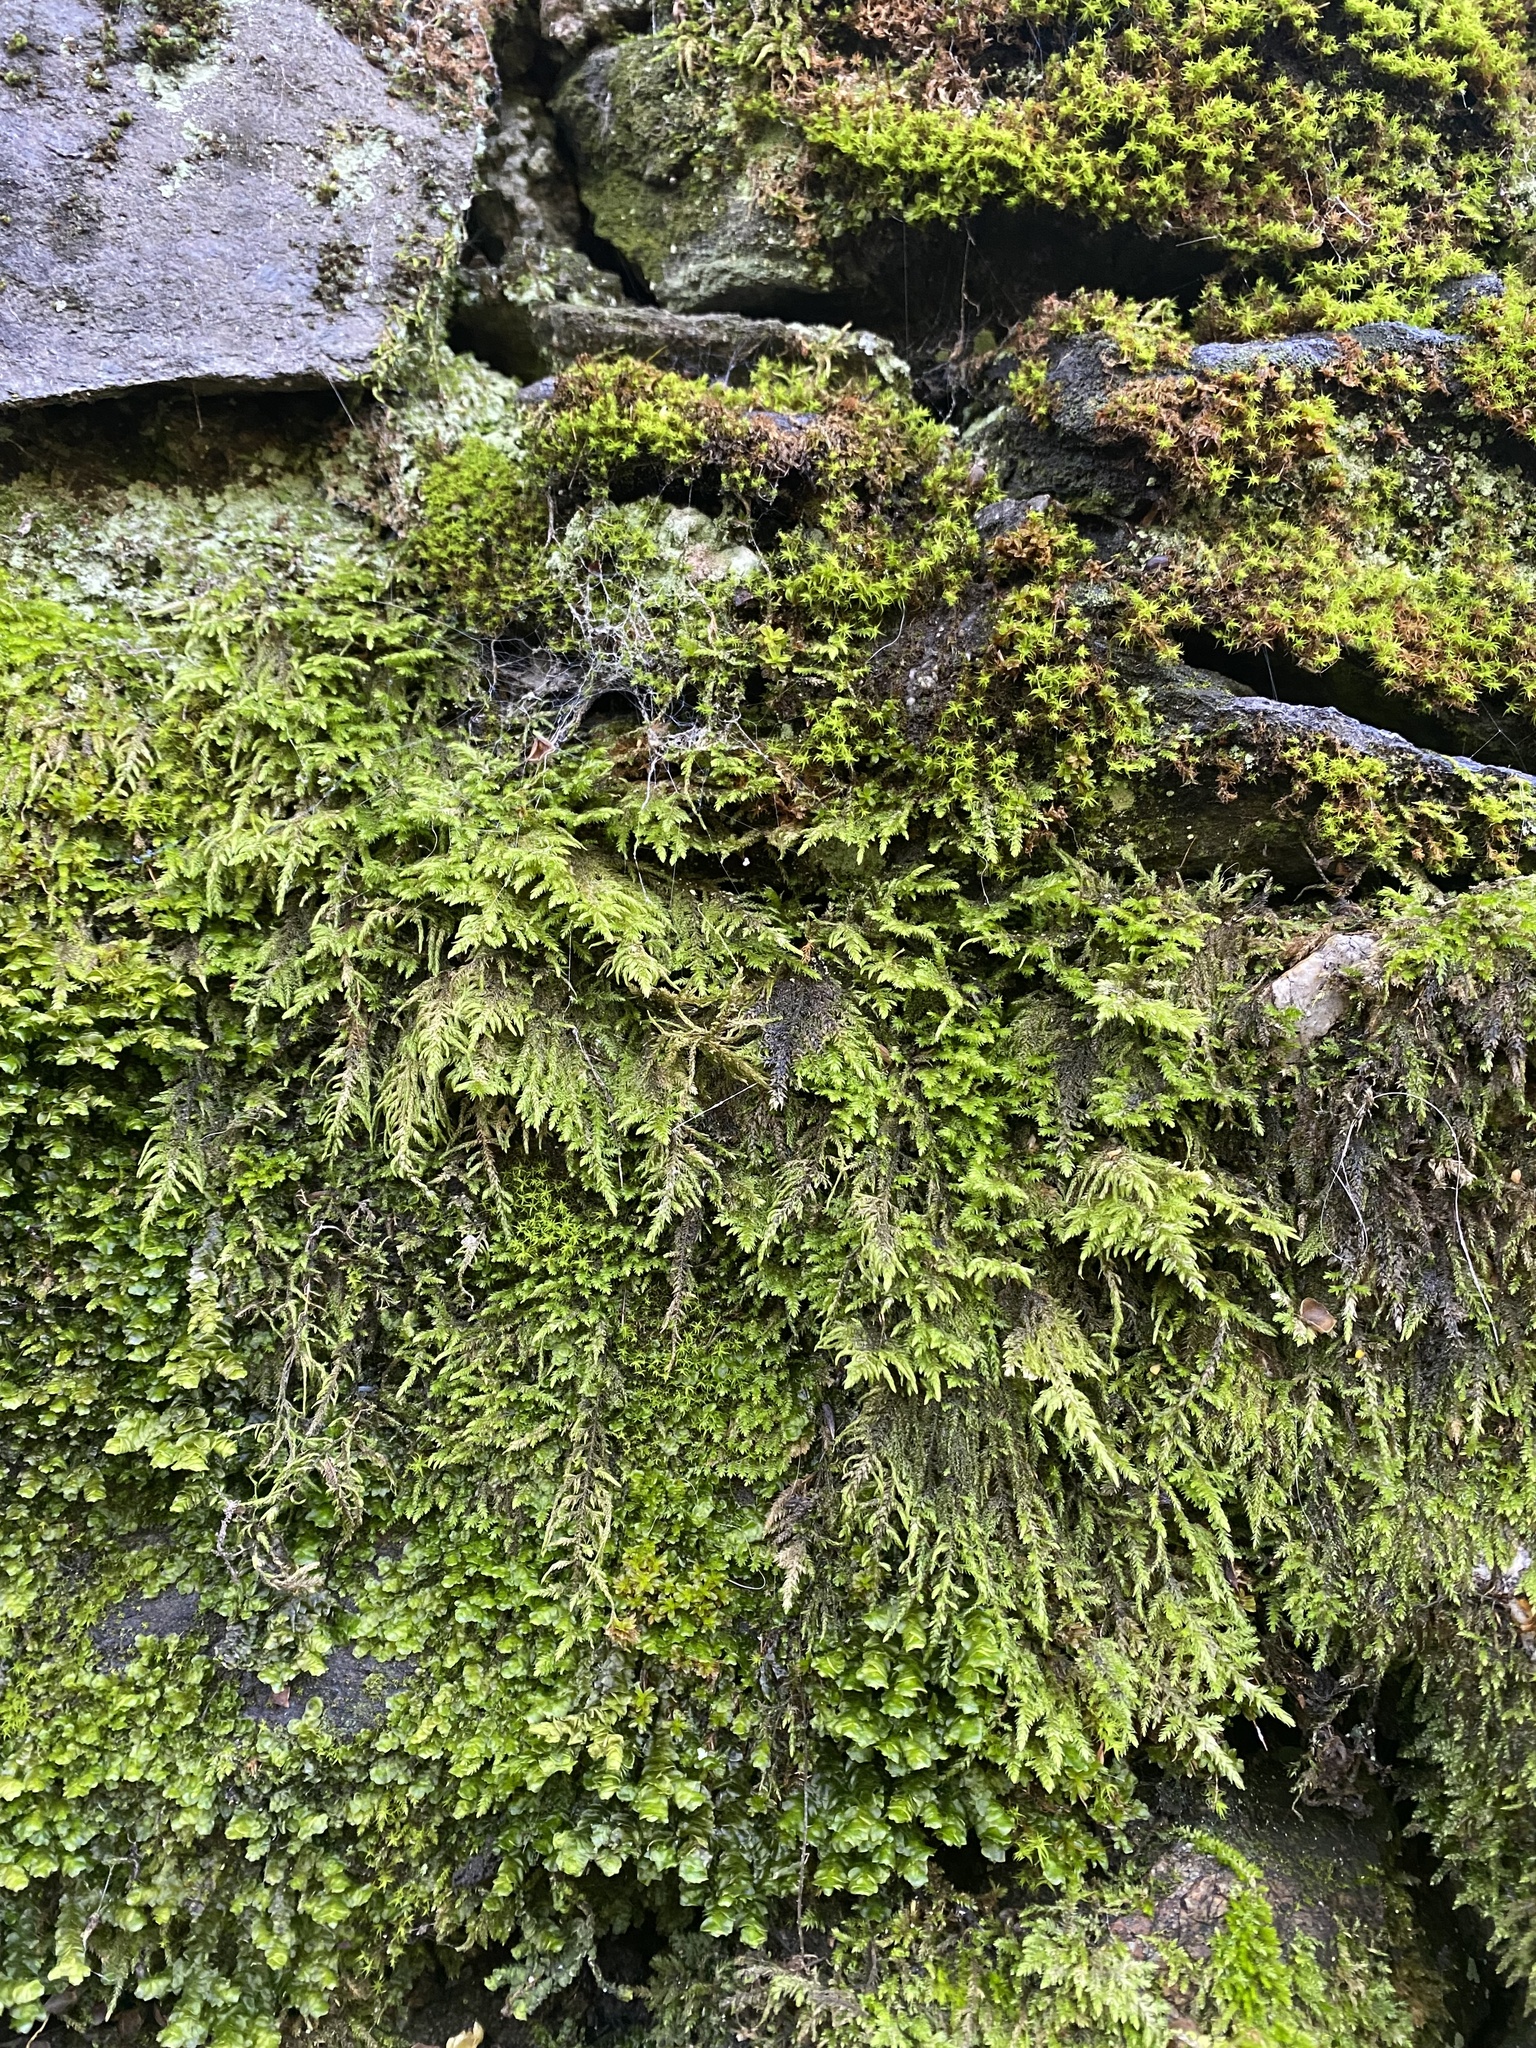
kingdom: Plantae
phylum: Bryophyta
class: Bryopsida
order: Hypnales
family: Cryphaeaceae
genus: Dendroalsia
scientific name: Dendroalsia abietina
